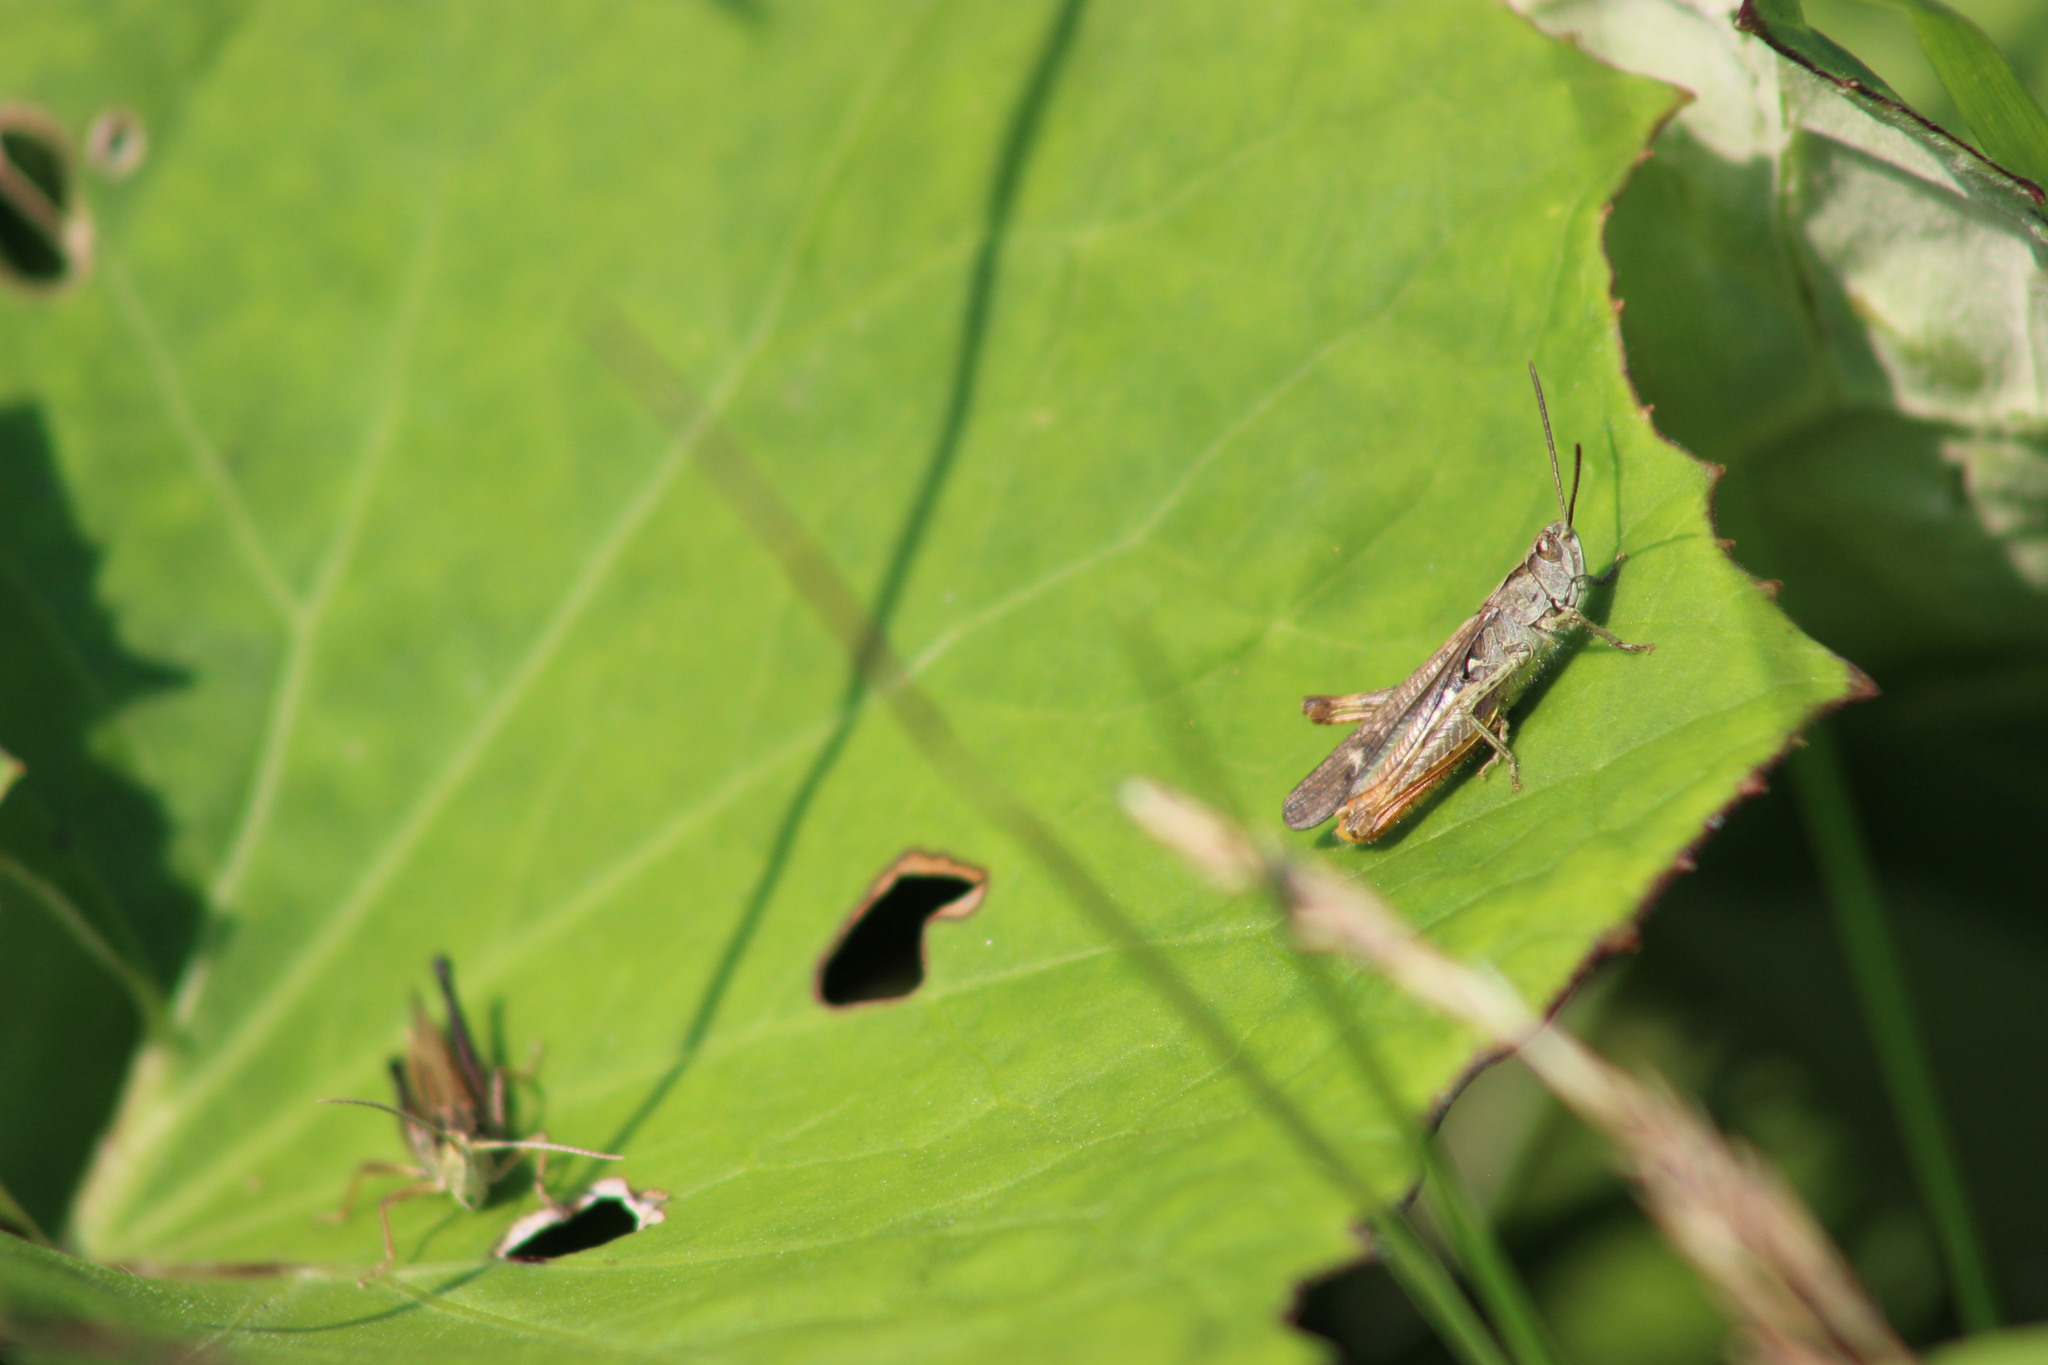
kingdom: Animalia
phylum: Arthropoda
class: Insecta
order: Orthoptera
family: Acrididae
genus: Chorthippus
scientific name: Chorthippus biguttulus
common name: Bow-winged grasshopper
